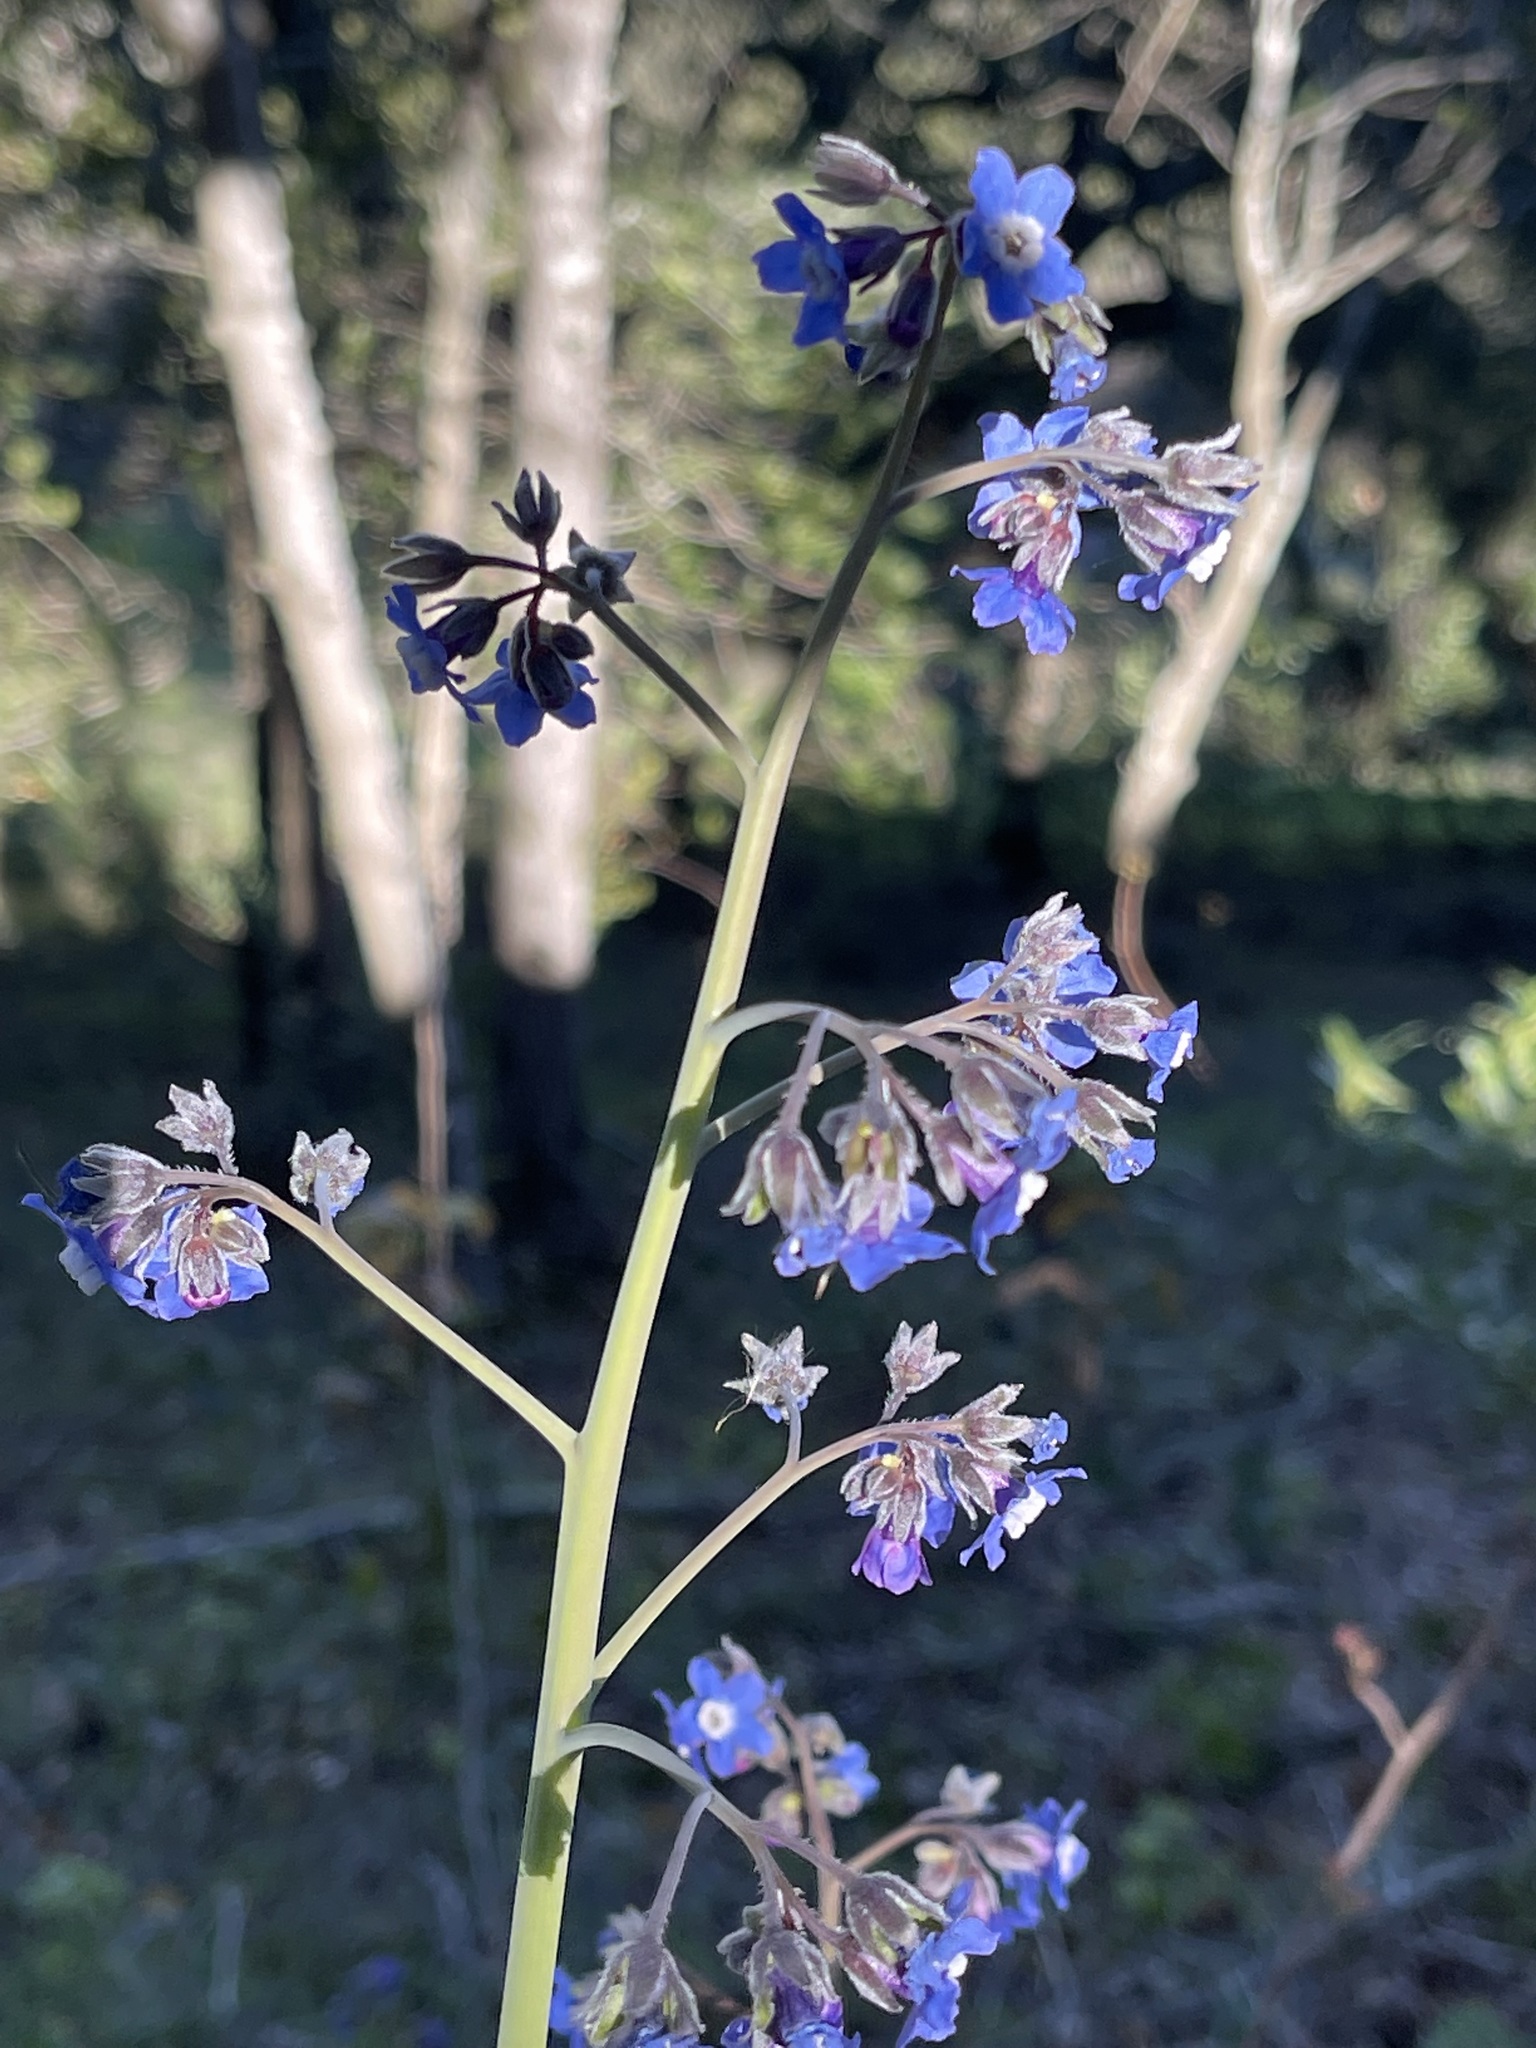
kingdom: Plantae
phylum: Tracheophyta
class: Magnoliopsida
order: Boraginales
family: Boraginaceae
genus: Adelinia
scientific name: Adelinia grande
